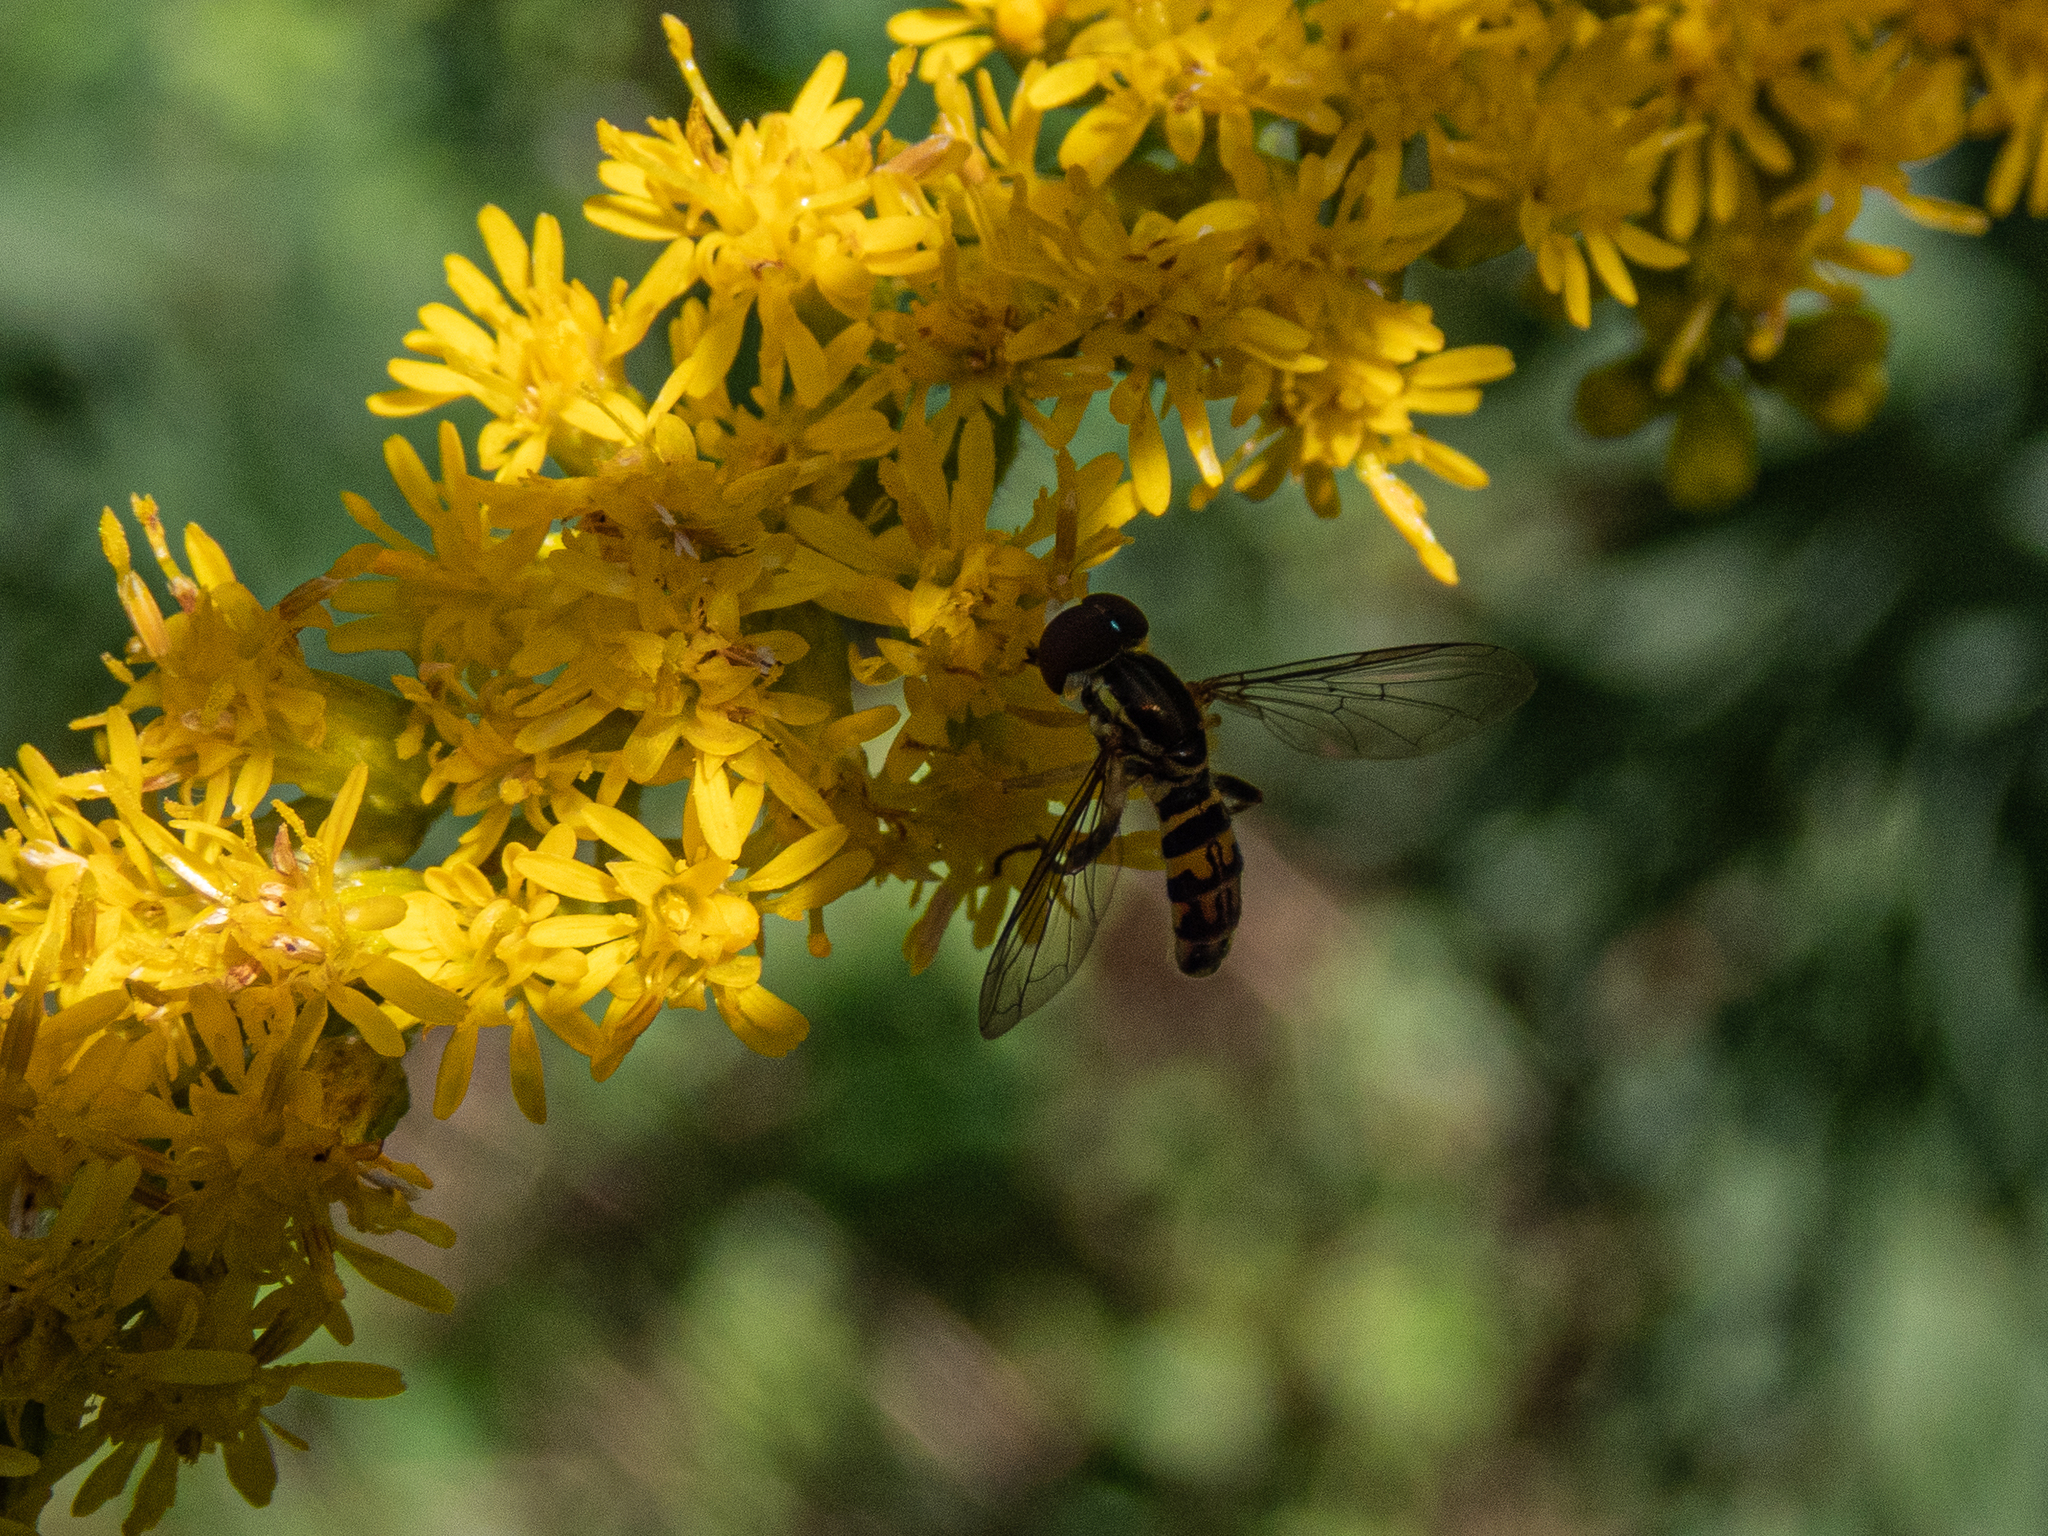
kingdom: Animalia
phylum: Arthropoda
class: Insecta
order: Diptera
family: Syrphidae
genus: Toxomerus
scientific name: Toxomerus geminatus
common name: Eastern calligrapher
